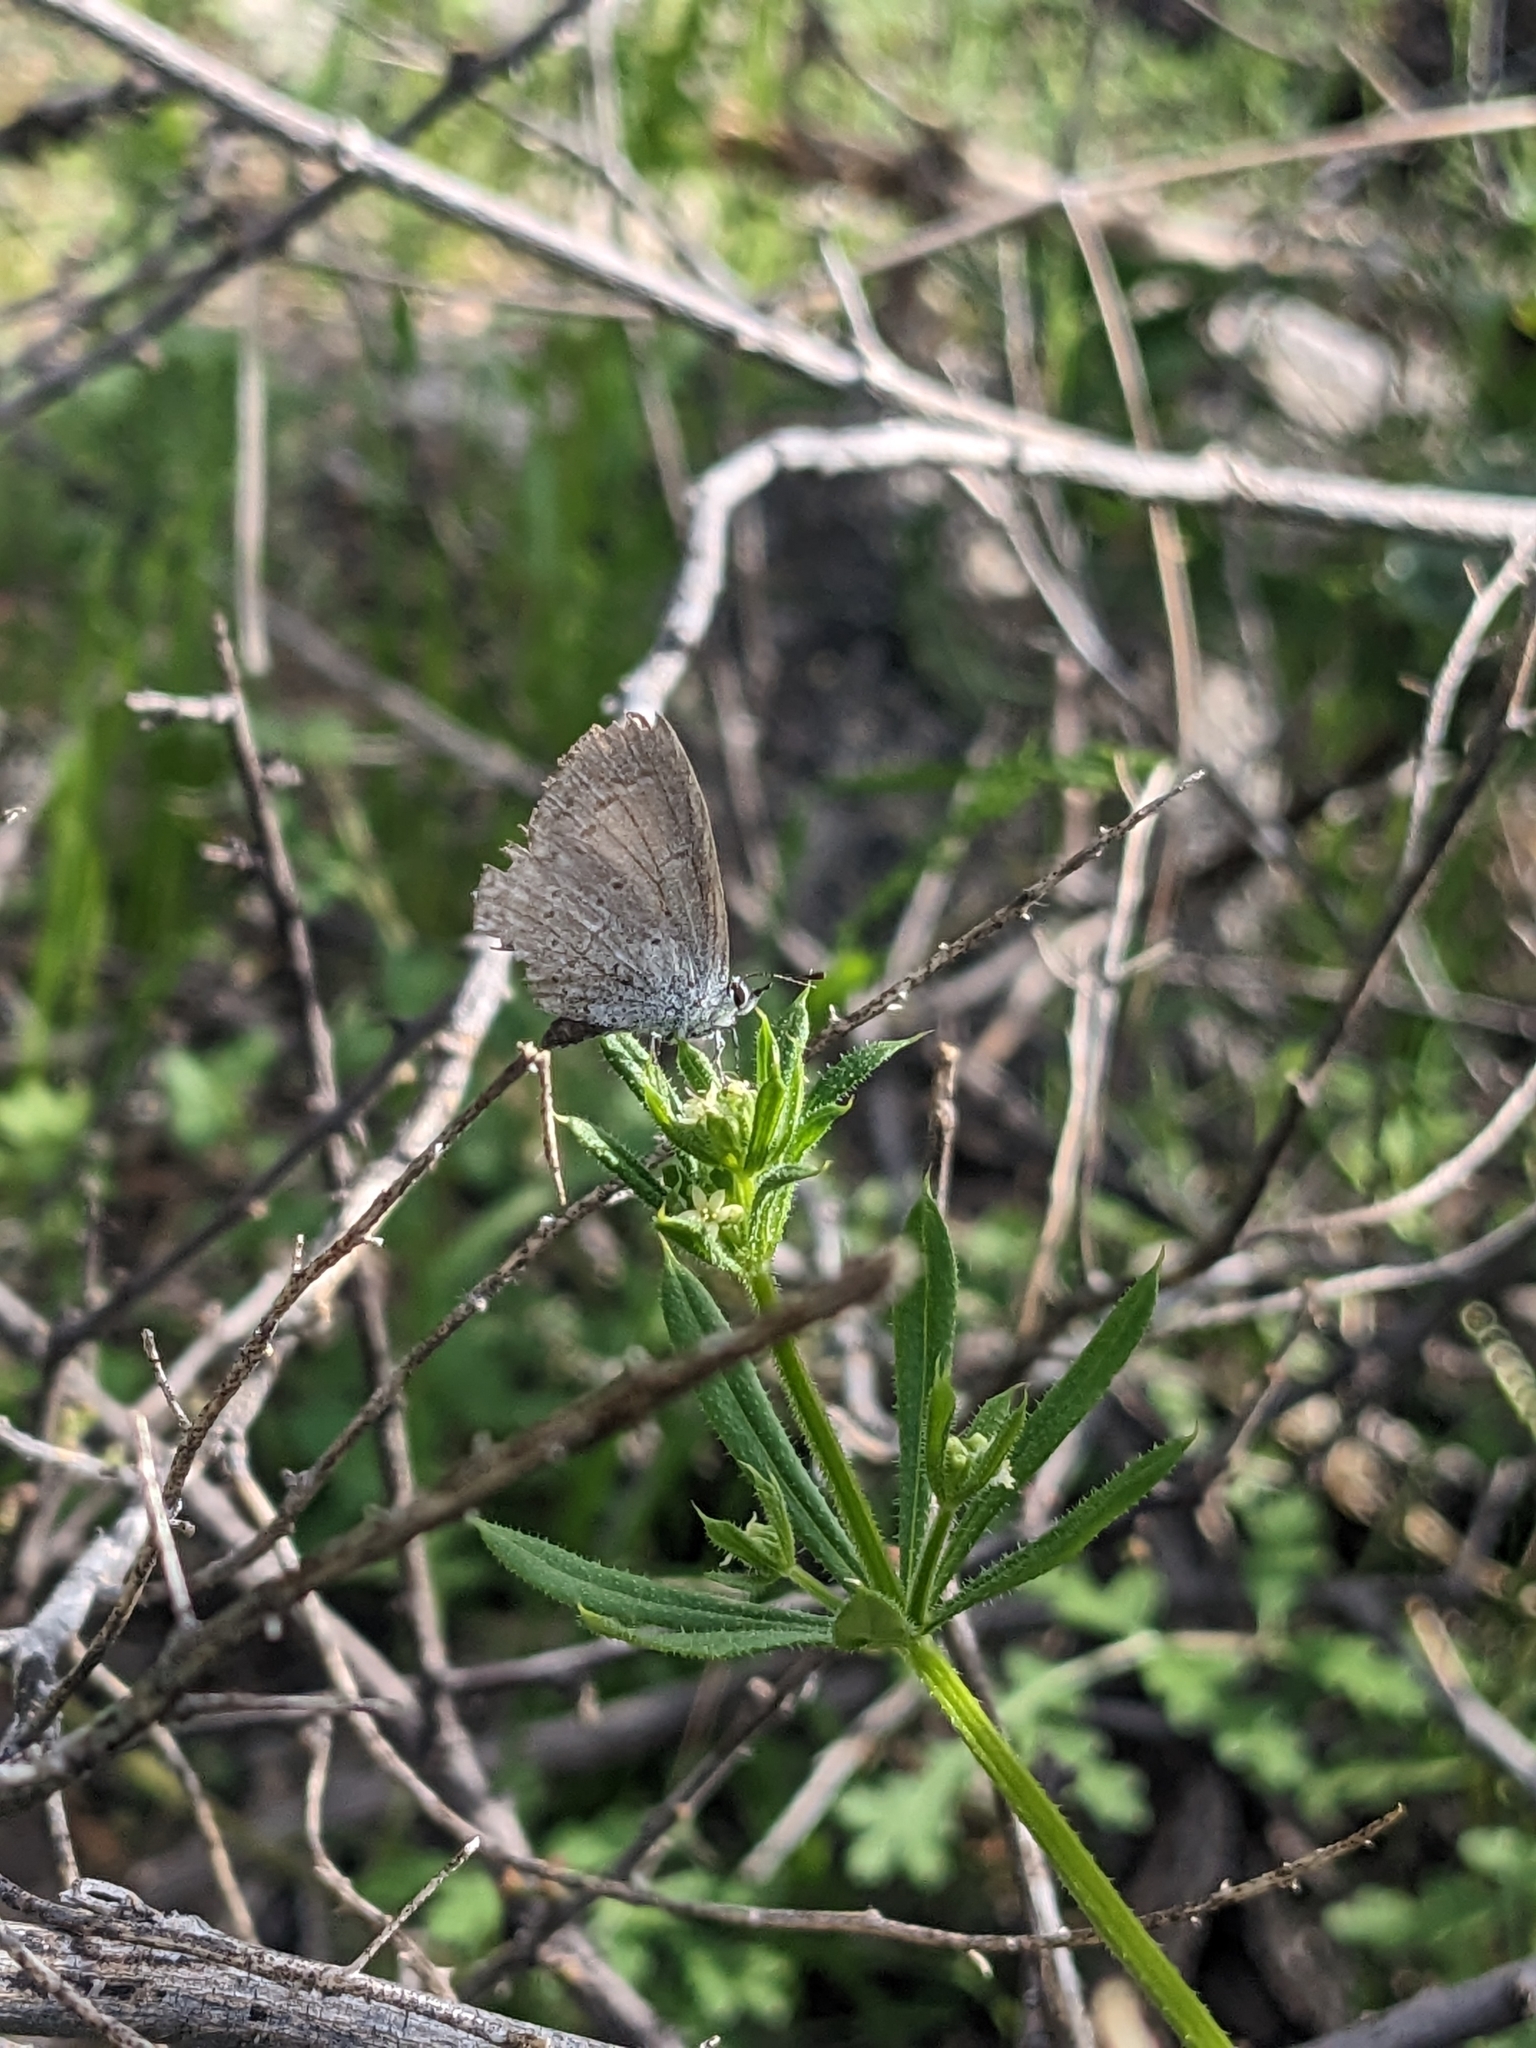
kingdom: Animalia
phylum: Arthropoda
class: Insecta
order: Lepidoptera
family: Lycaenidae
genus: Celastrina
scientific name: Celastrina ladon
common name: Spring azure
